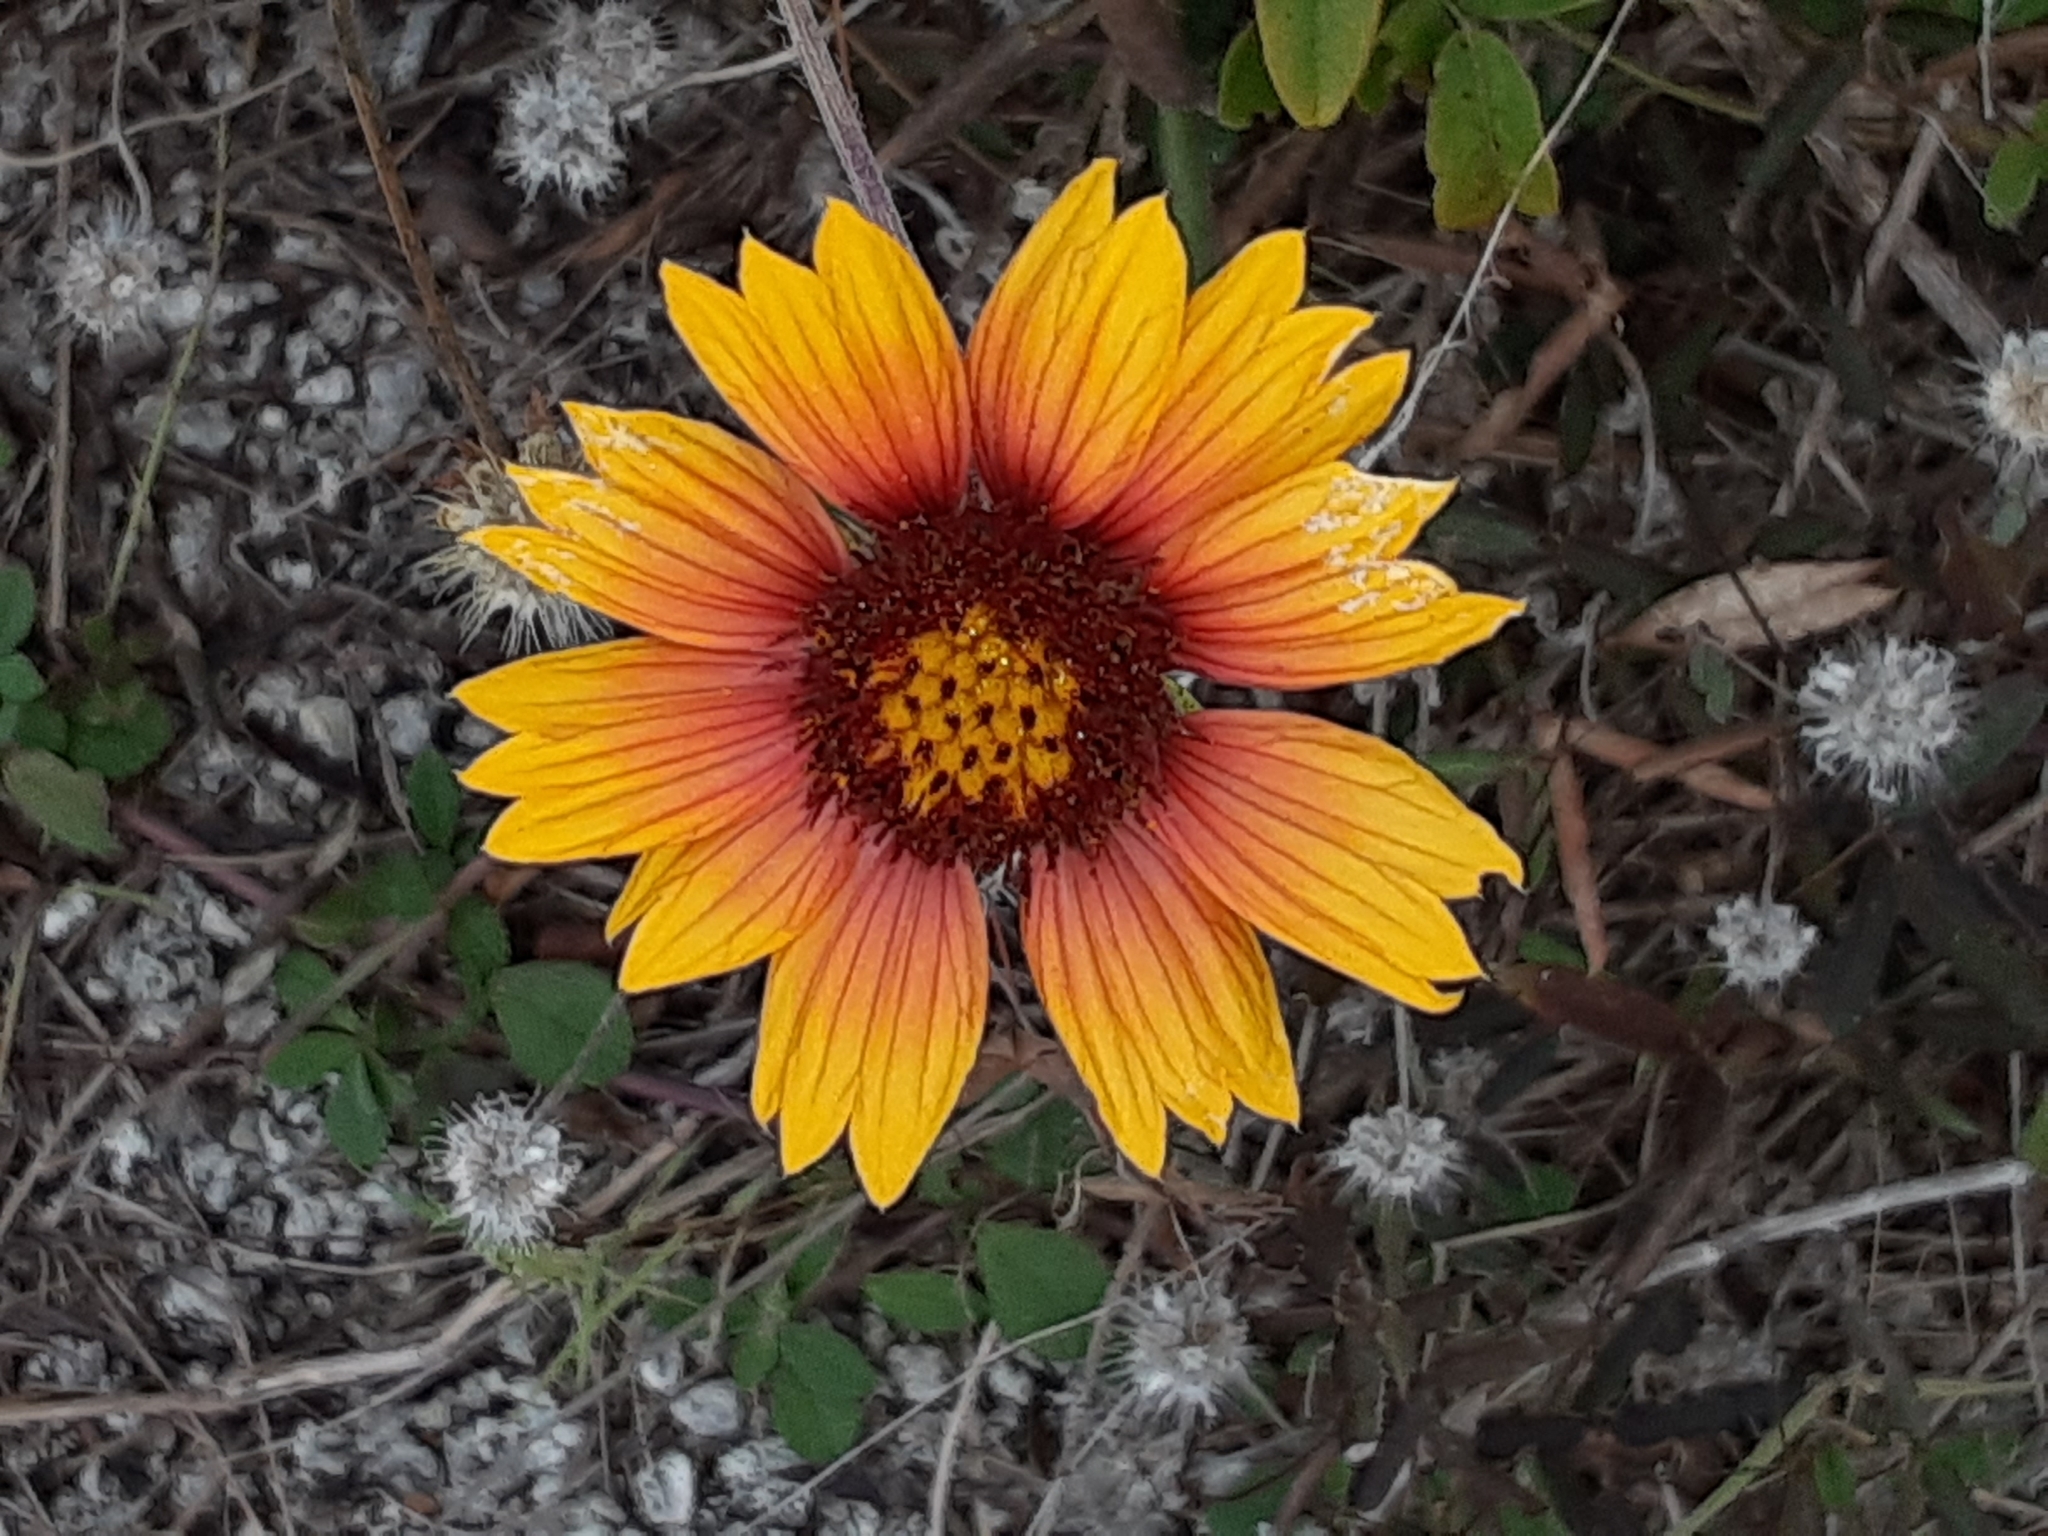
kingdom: Plantae
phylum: Tracheophyta
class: Magnoliopsida
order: Asterales
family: Asteraceae
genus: Gaillardia
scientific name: Gaillardia pulchella
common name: Firewheel
